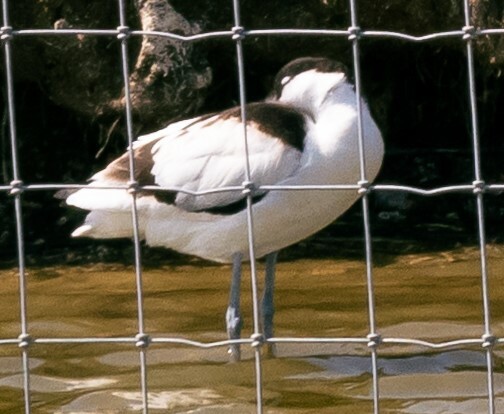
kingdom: Animalia
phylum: Chordata
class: Aves
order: Charadriiformes
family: Recurvirostridae
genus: Recurvirostra
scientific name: Recurvirostra avosetta
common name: Pied avocet
